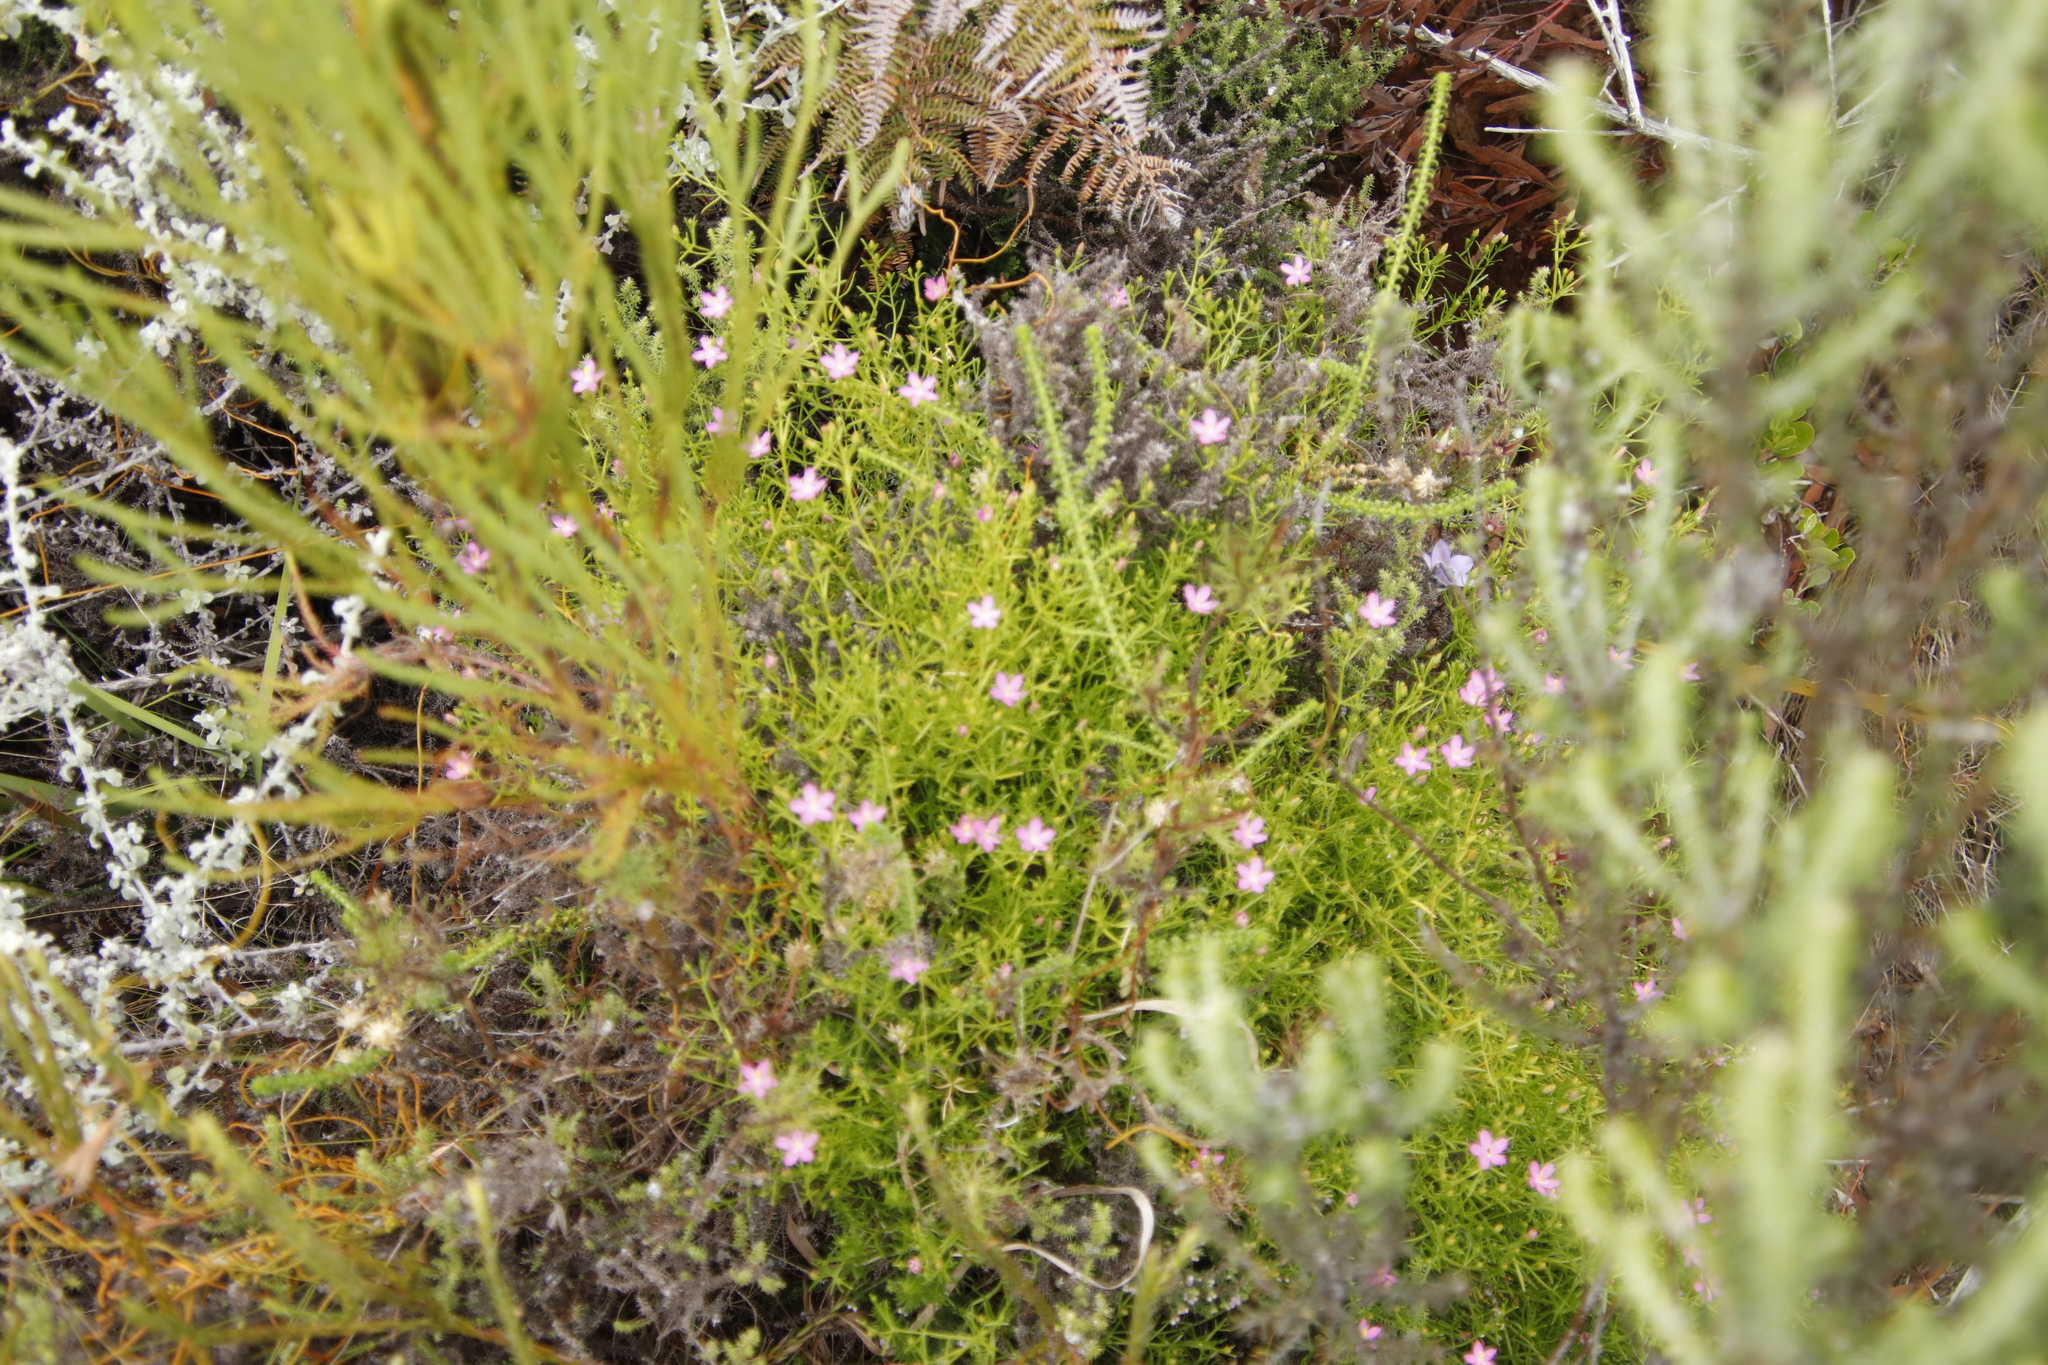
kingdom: Plantae
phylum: Tracheophyta
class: Magnoliopsida
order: Gentianales
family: Gentianaceae
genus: Chironia
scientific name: Chironia baccifera
